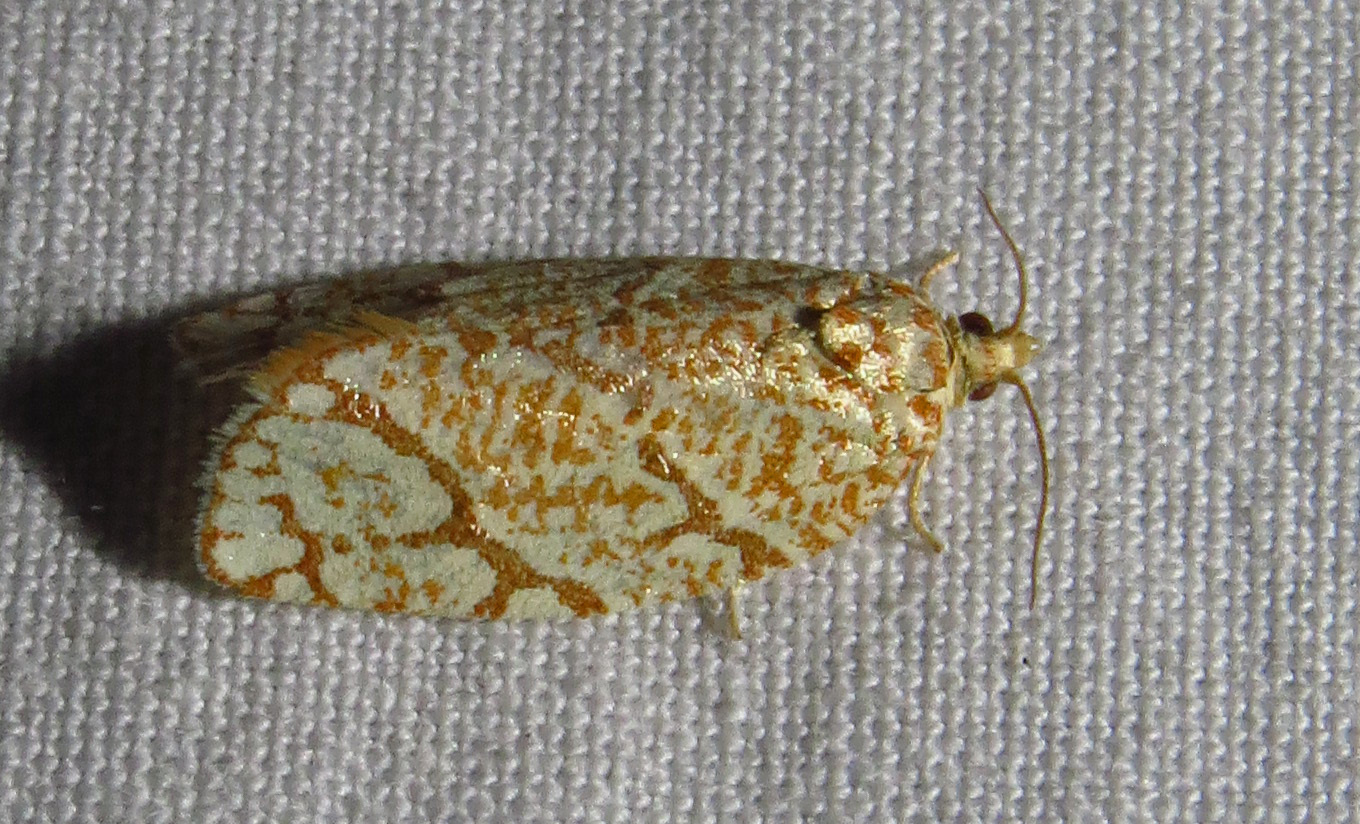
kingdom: Animalia
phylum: Arthropoda
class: Insecta
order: Lepidoptera
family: Tortricidae
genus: Argyrotaenia
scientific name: Argyrotaenia quercifoliana
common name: Yellow-winged oak leafroller moth
